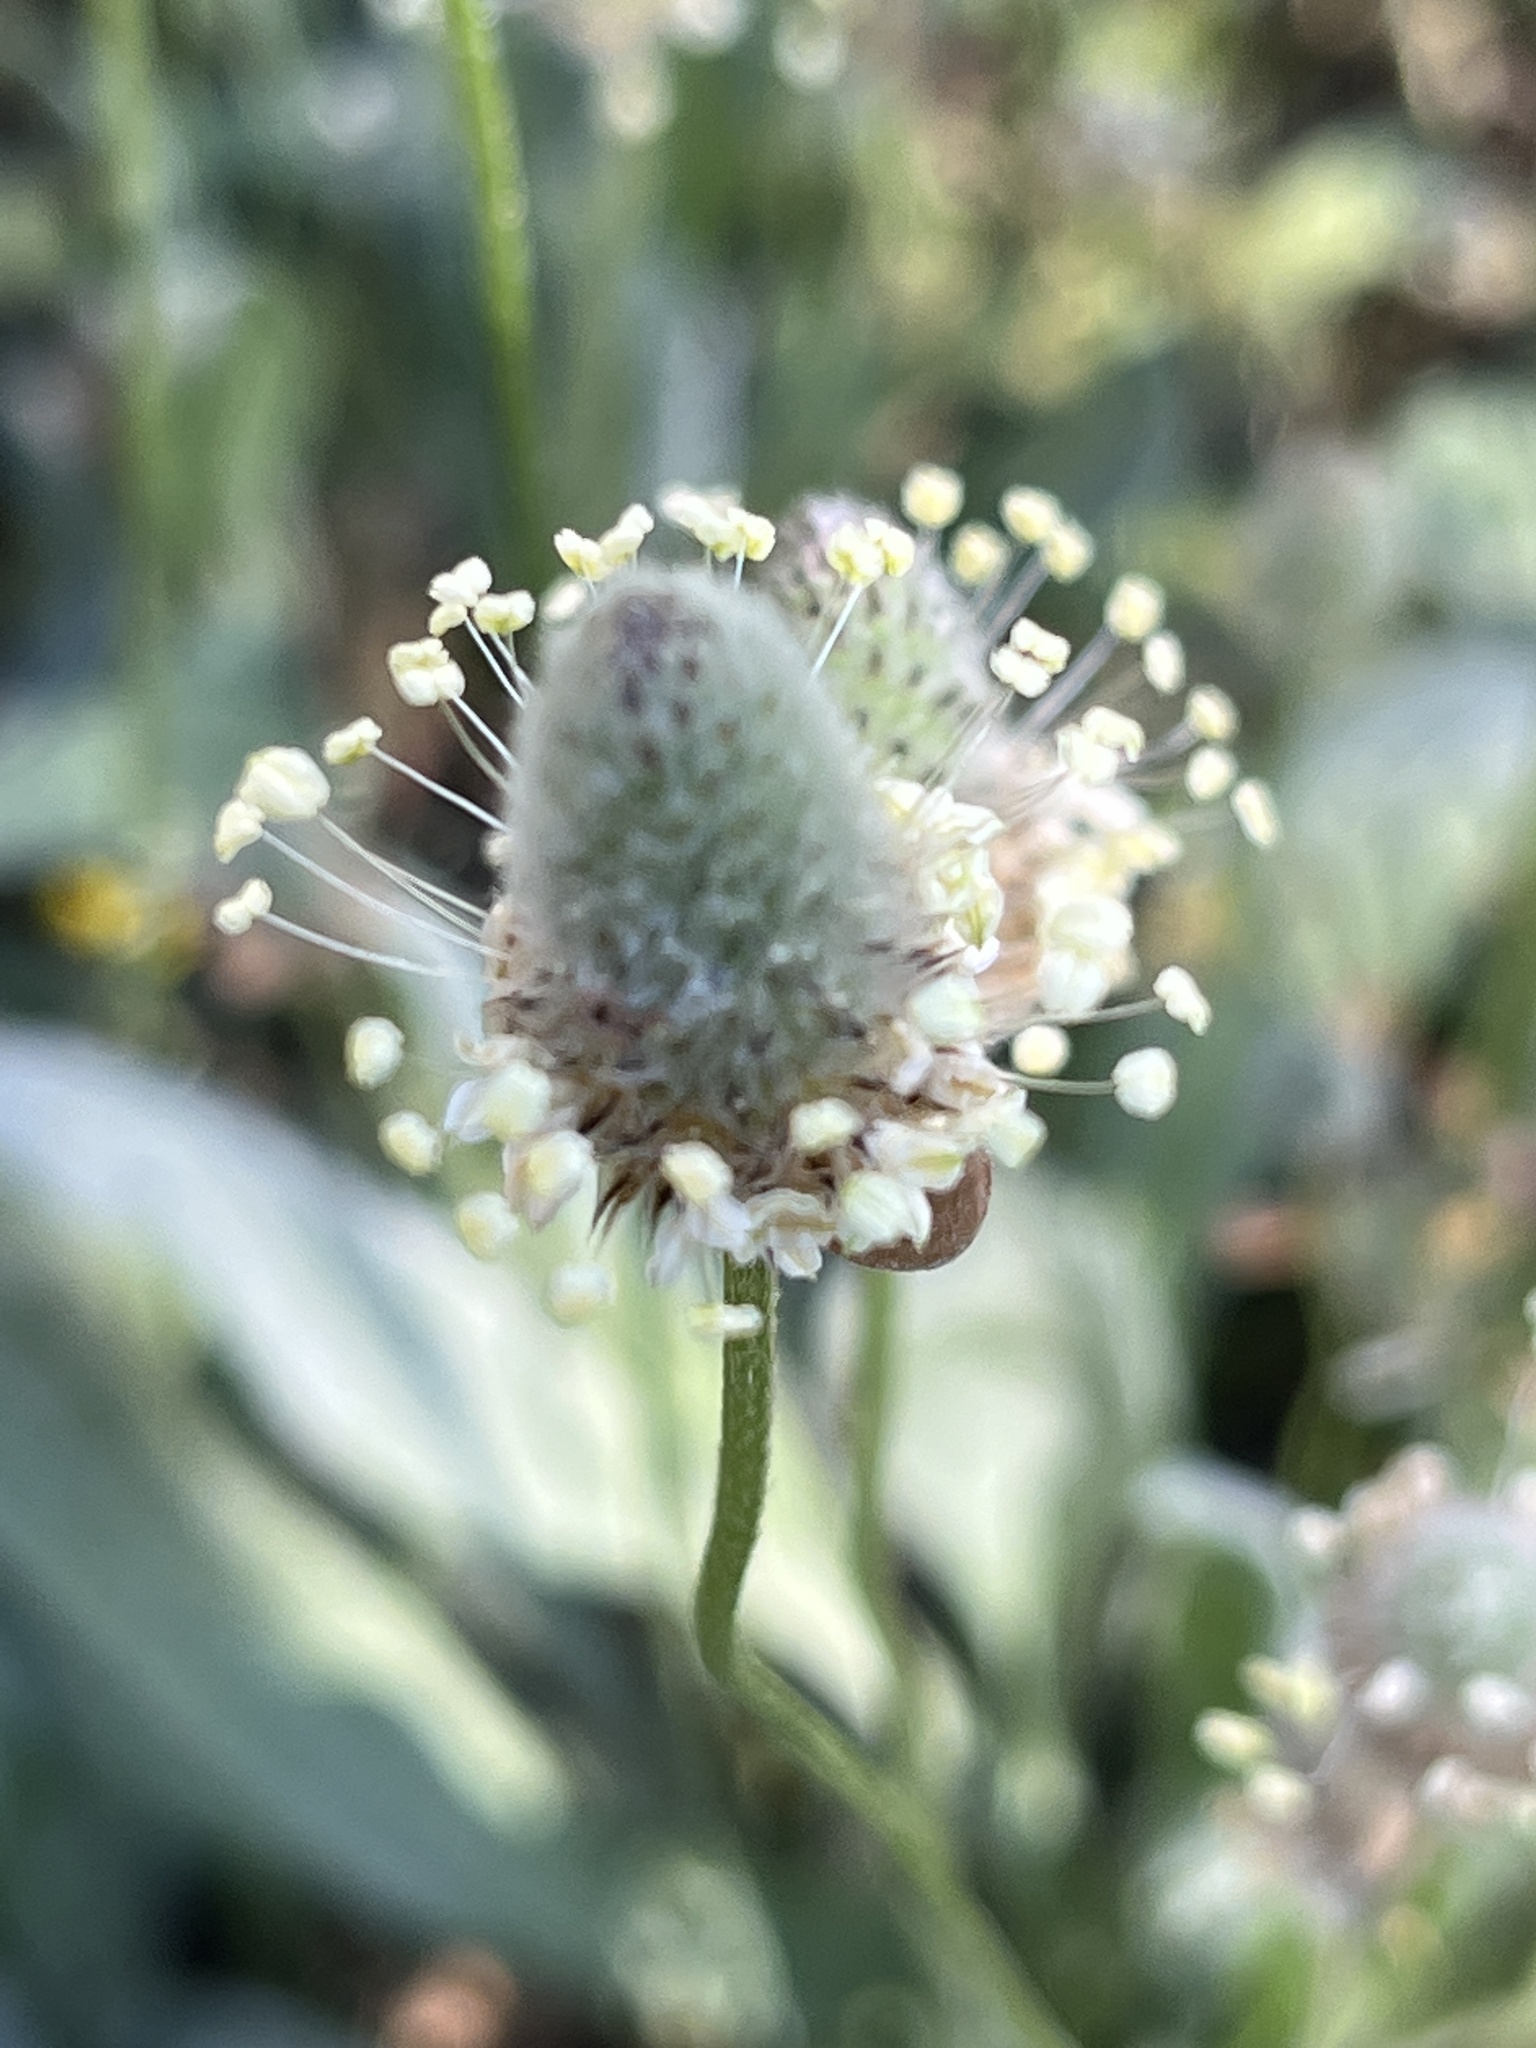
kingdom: Plantae
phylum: Tracheophyta
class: Magnoliopsida
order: Lamiales
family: Plantaginaceae
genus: Plantago
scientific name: Plantago lagopus
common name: Hare-foot plantain
